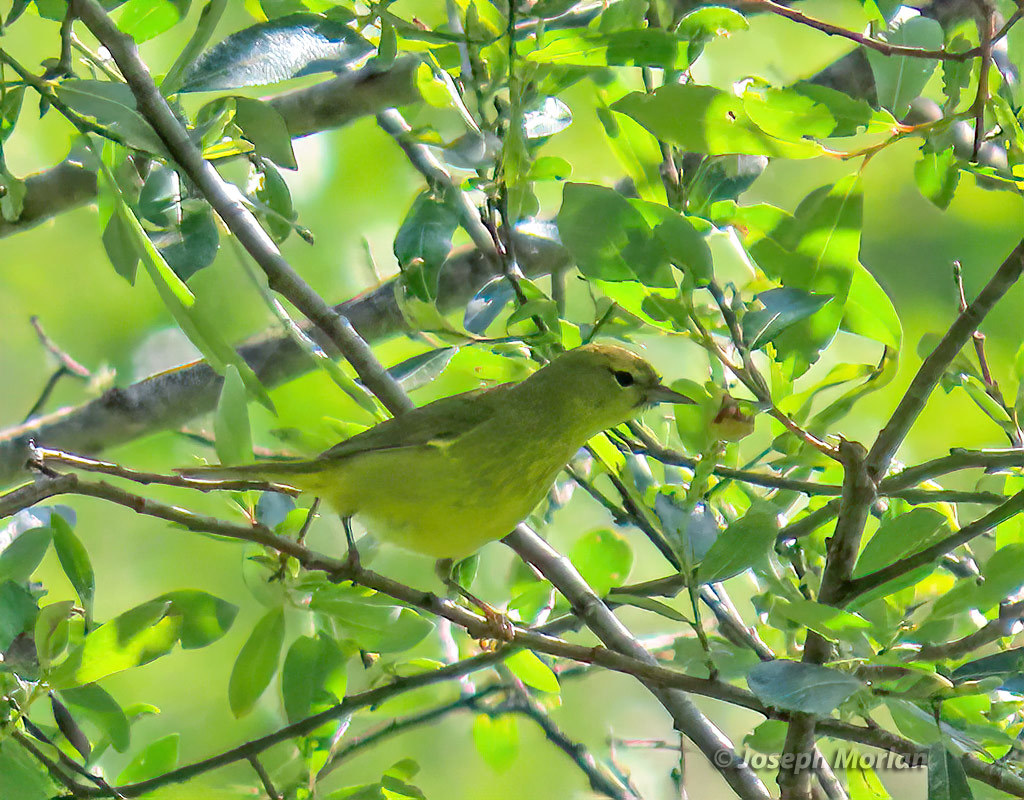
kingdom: Animalia
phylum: Chordata
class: Aves
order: Passeriformes
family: Parulidae
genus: Leiothlypis
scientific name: Leiothlypis celata
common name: Orange-crowned warbler
